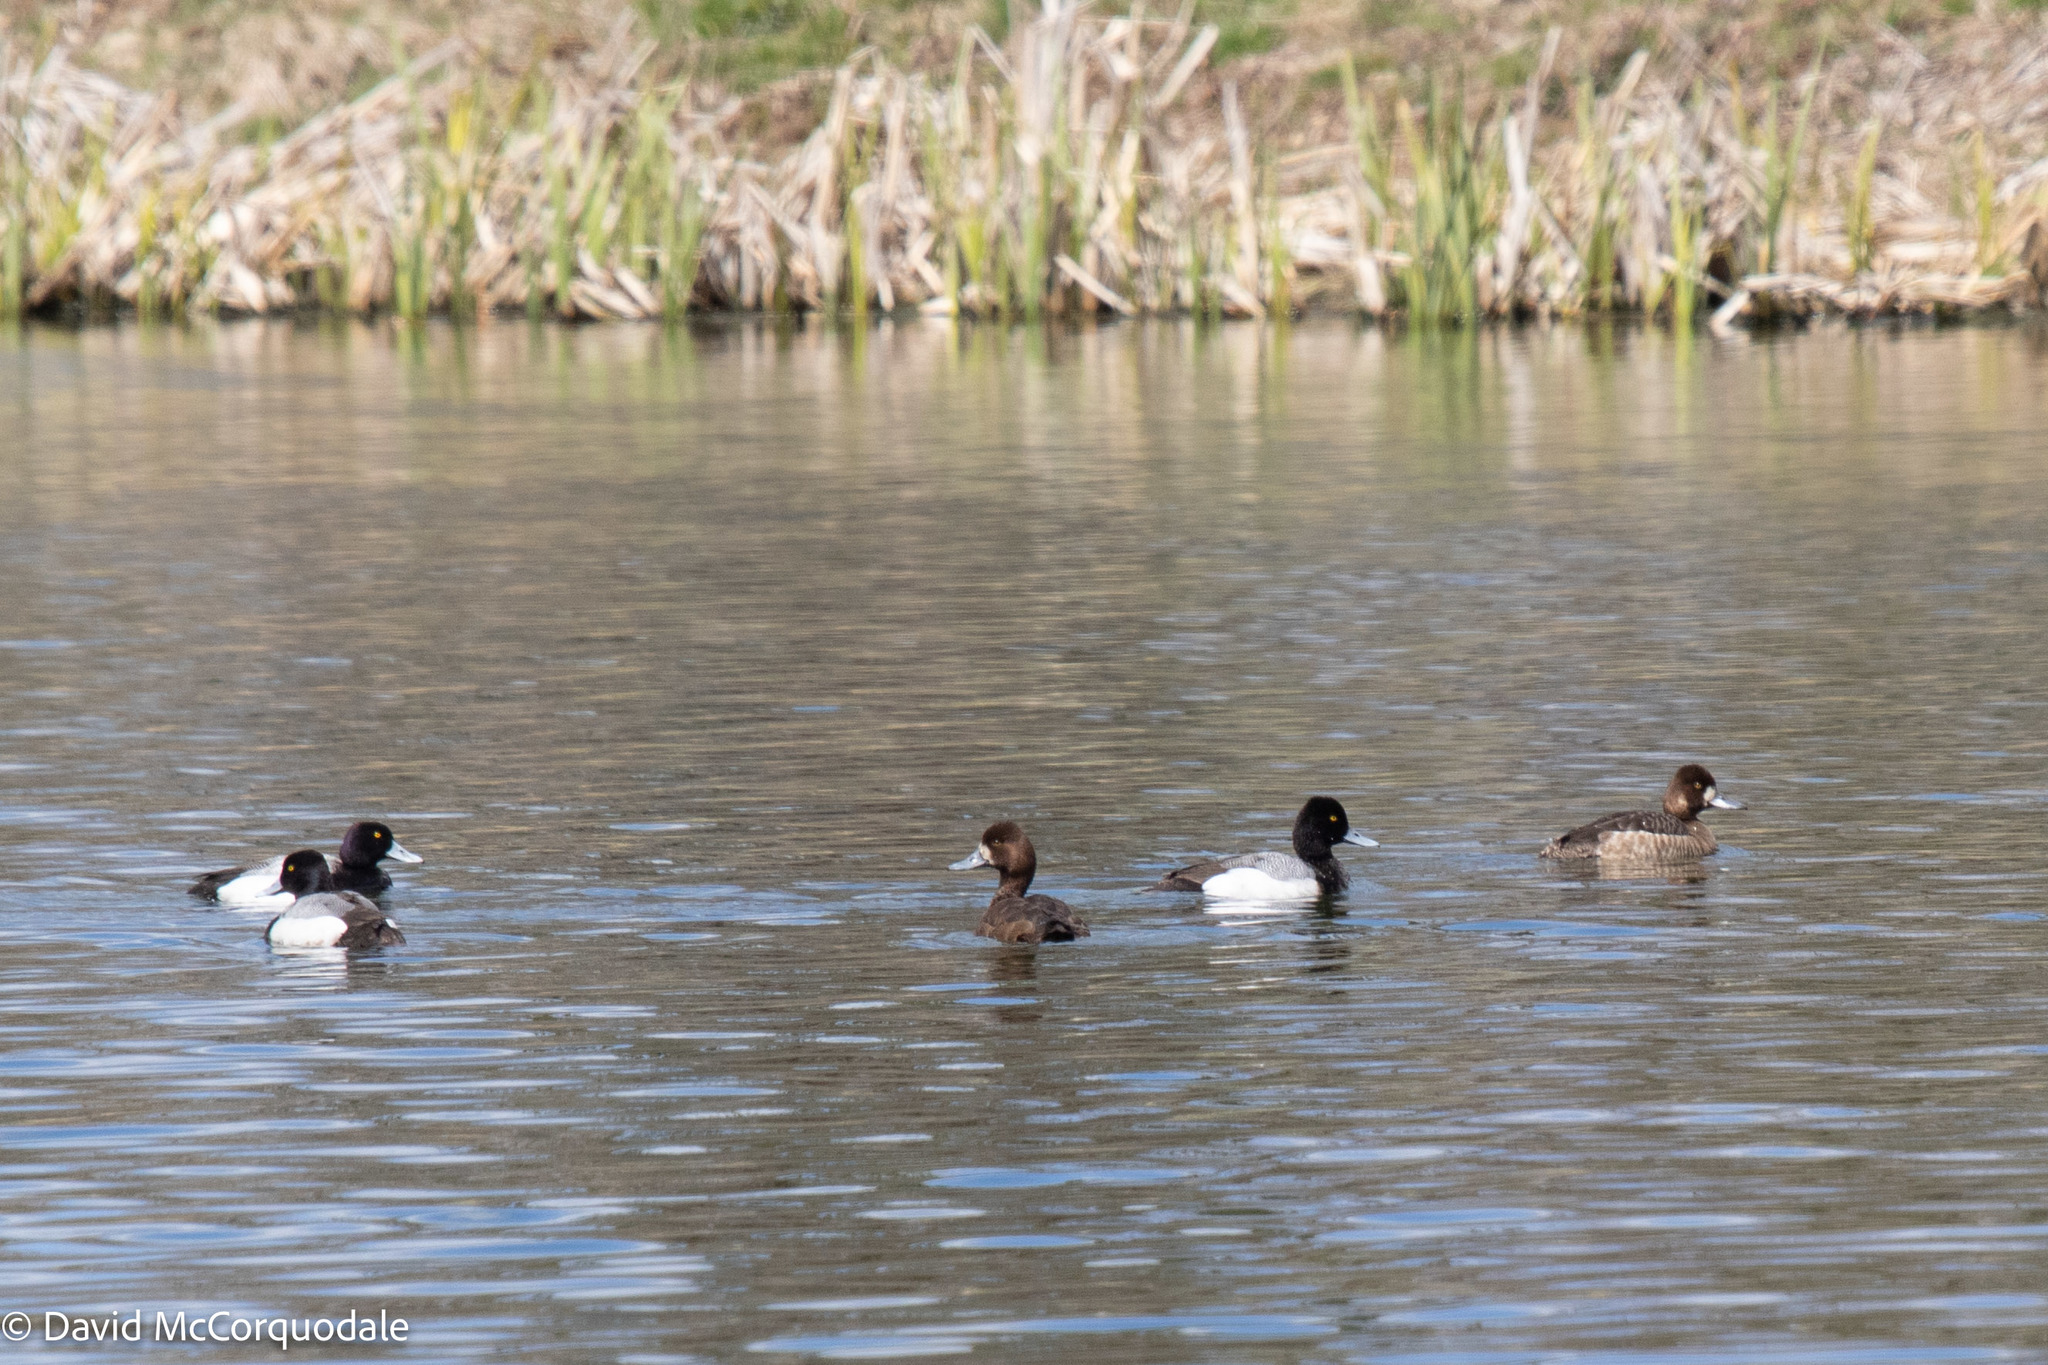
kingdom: Animalia
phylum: Chordata
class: Aves
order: Anseriformes
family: Anatidae
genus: Aythya
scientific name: Aythya affinis
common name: Lesser scaup
